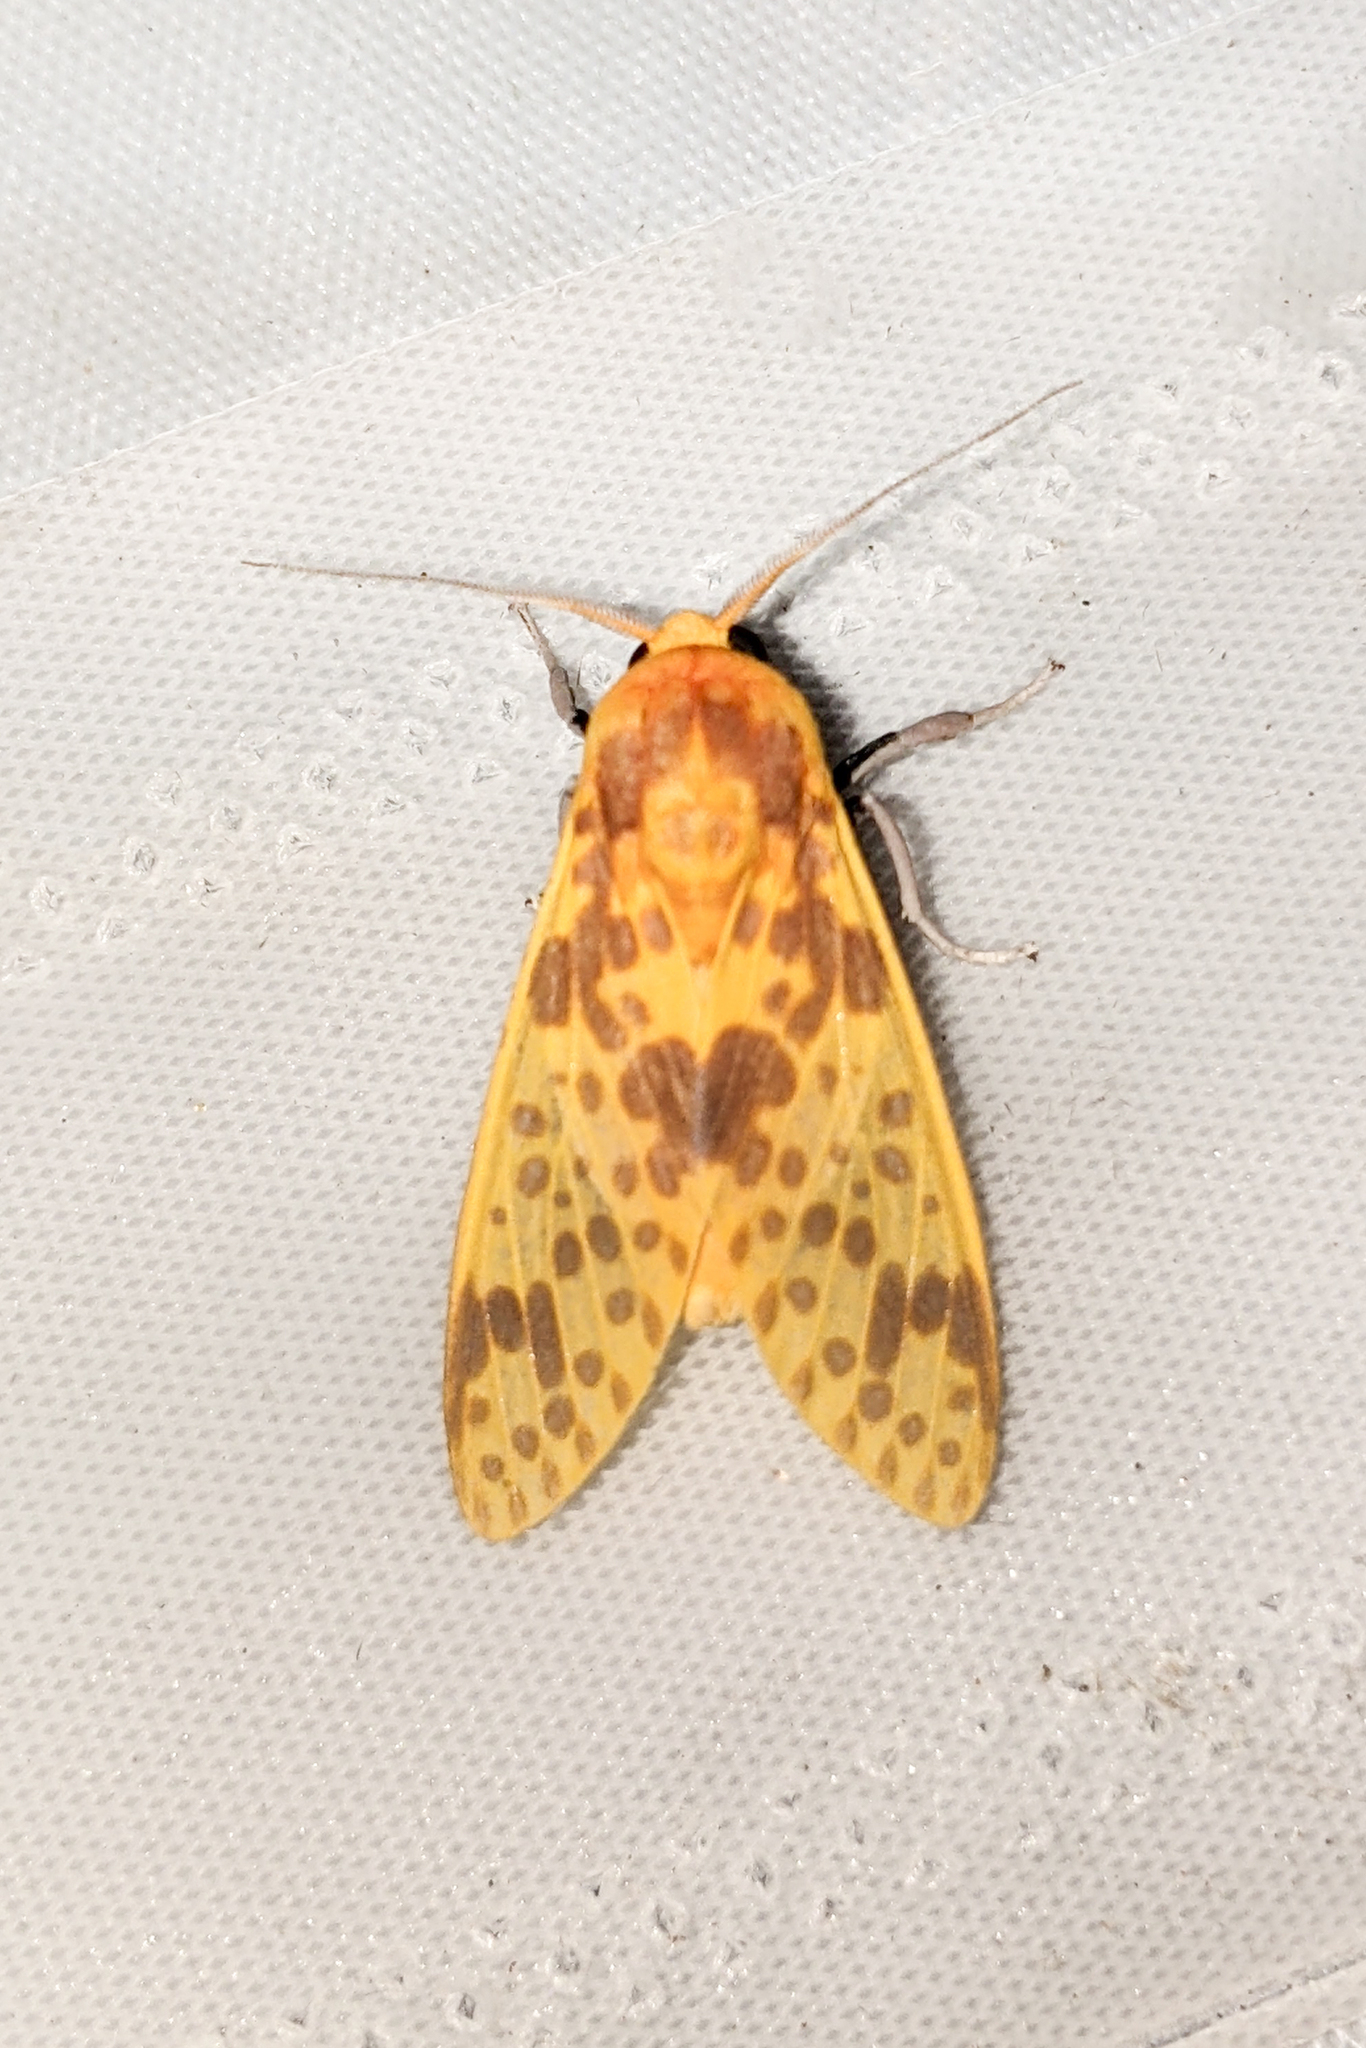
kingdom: Animalia
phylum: Arthropoda
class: Insecta
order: Lepidoptera
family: Erebidae
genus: Symphlebia
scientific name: Symphlebia neja
